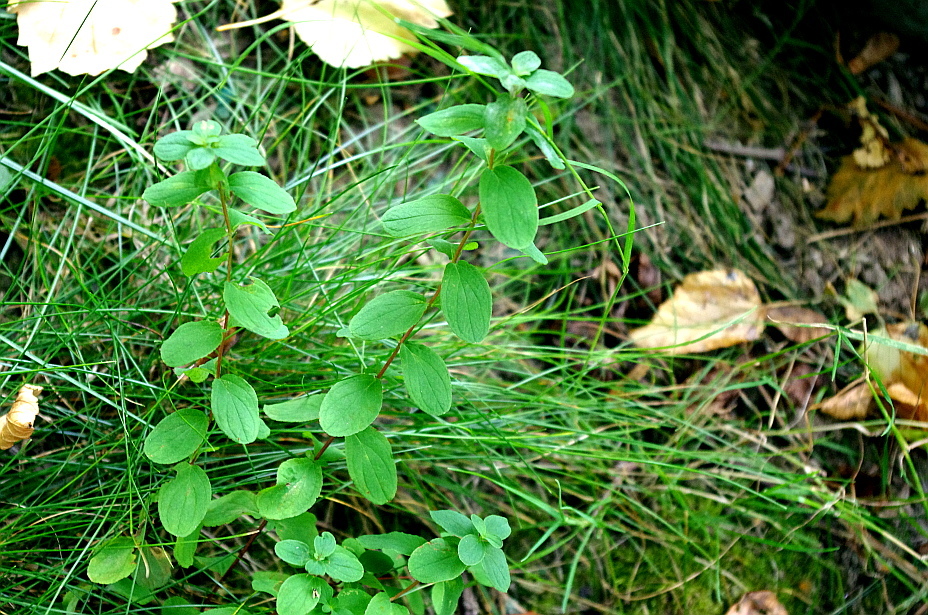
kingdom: Plantae
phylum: Tracheophyta
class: Magnoliopsida
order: Malpighiales
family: Hypericaceae
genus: Hypericum
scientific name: Hypericum maculatum
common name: Imperforate st. john's-wort
